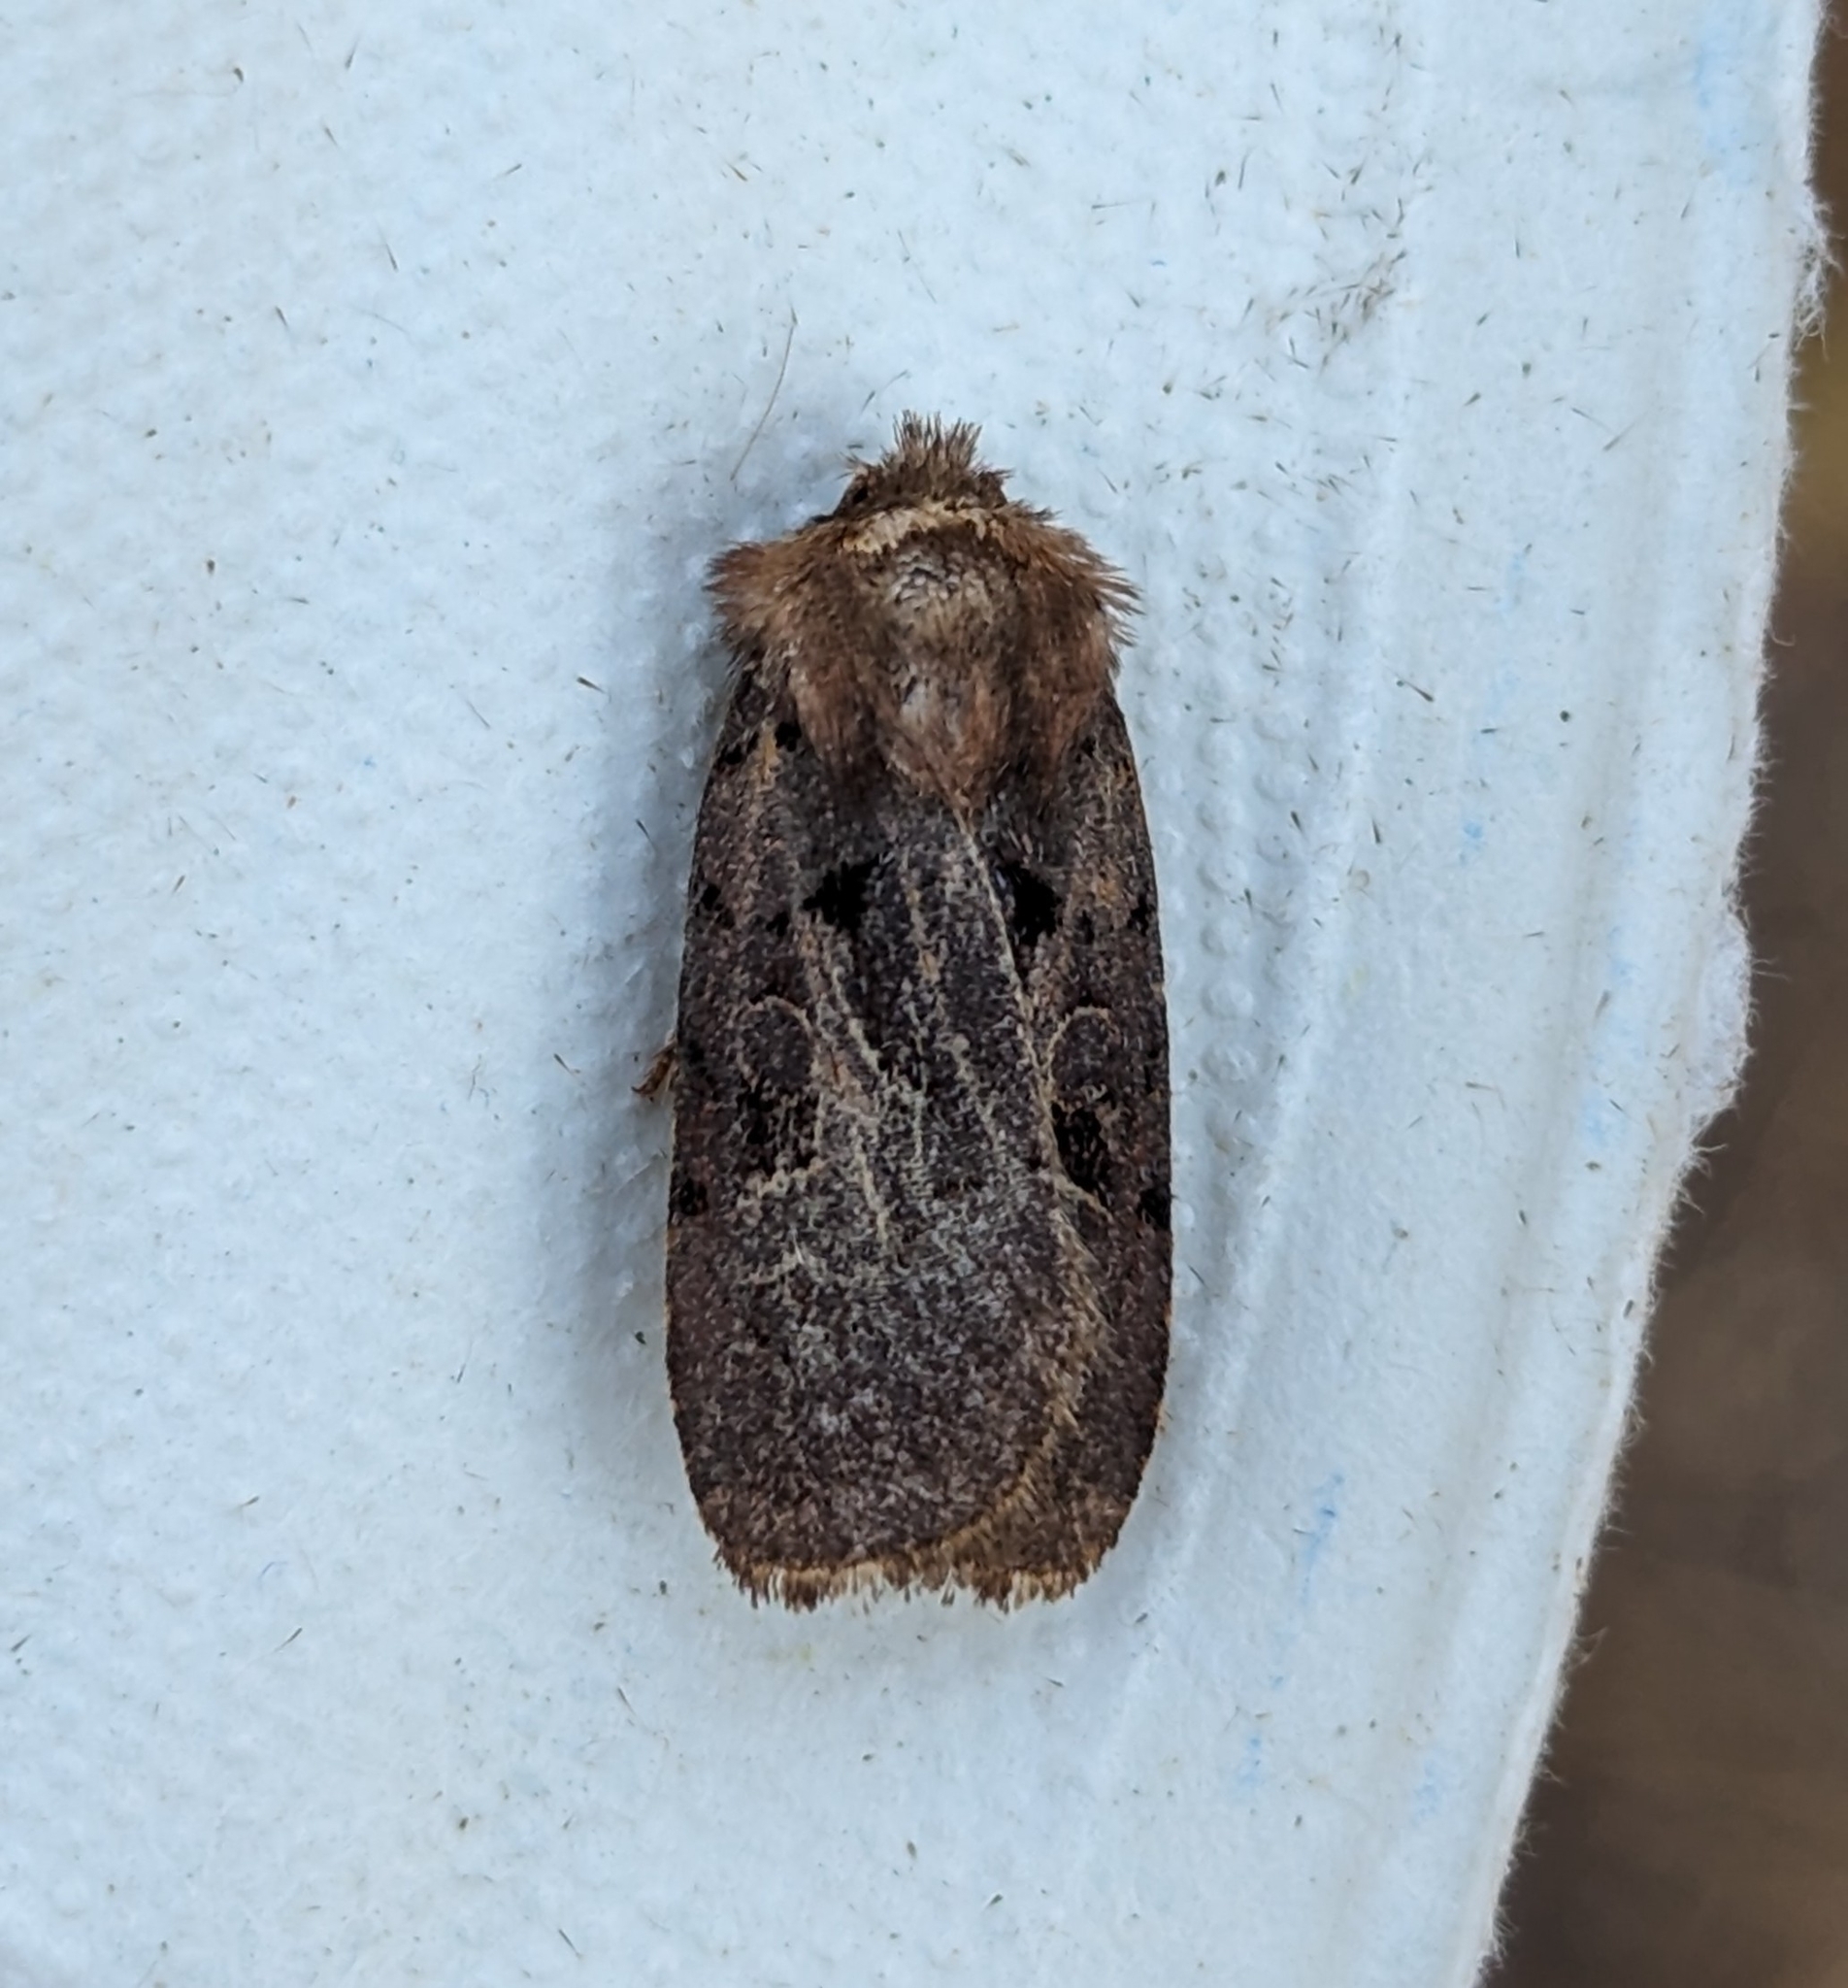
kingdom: Animalia
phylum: Arthropoda
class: Insecta
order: Lepidoptera
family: Noctuidae
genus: Chersotis
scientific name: Chersotis juncta
